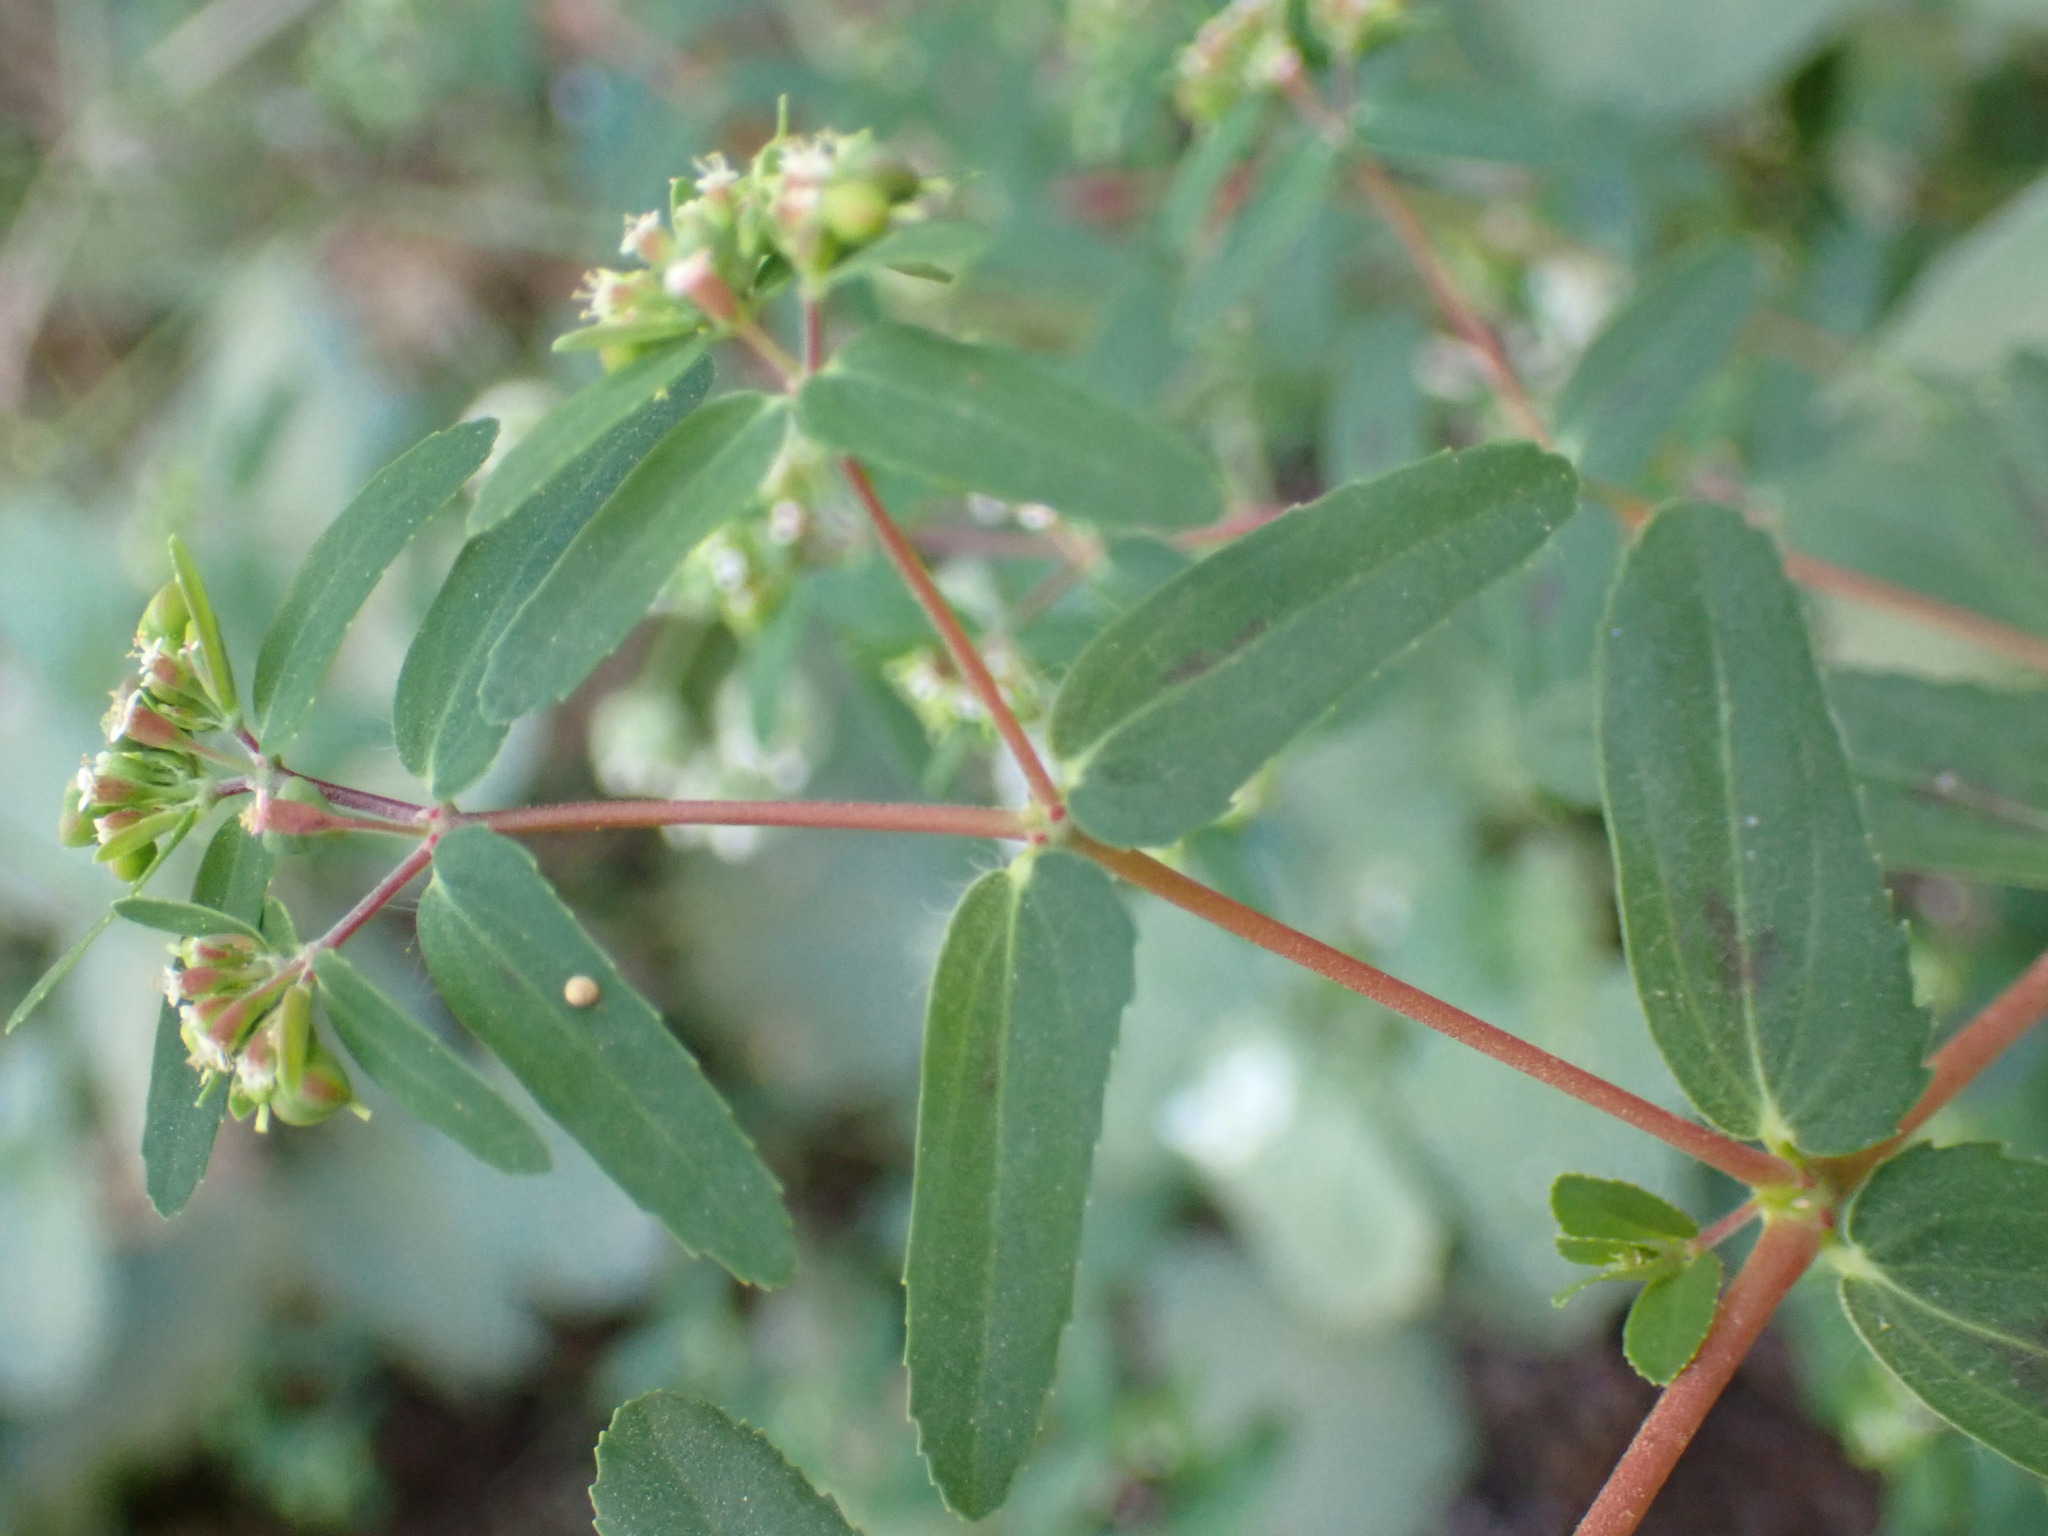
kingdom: Plantae
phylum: Tracheophyta
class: Magnoliopsida
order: Malpighiales
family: Euphorbiaceae
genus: Euphorbia
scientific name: Euphorbia nutans
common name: Eyebane
